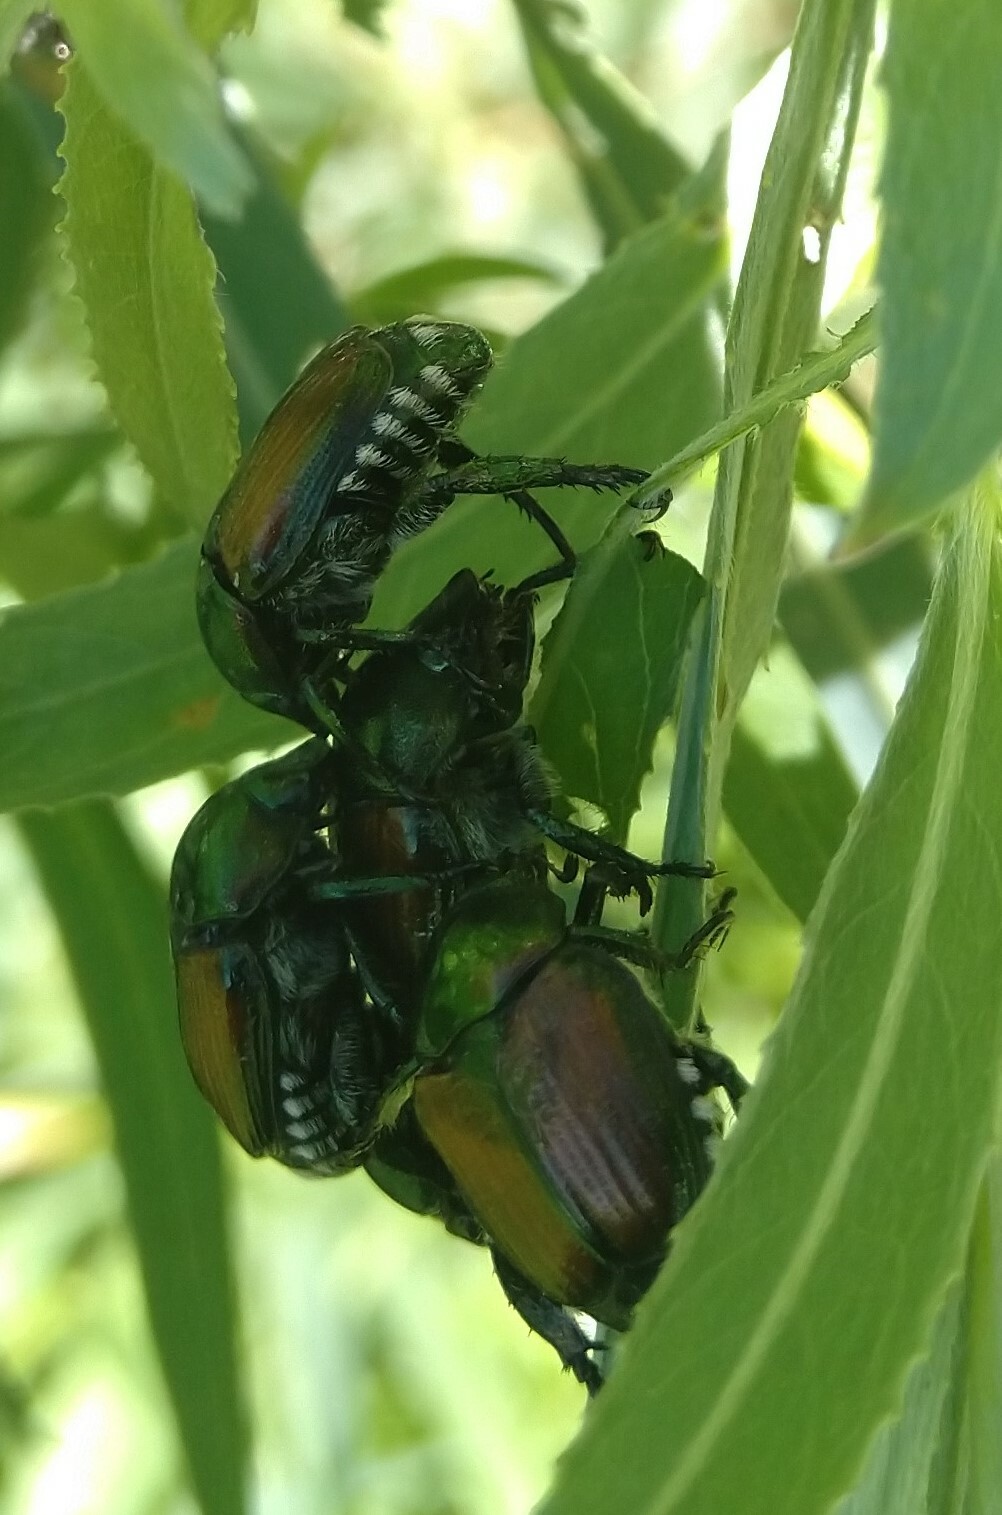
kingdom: Animalia
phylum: Arthropoda
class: Insecta
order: Coleoptera
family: Scarabaeidae
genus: Popillia
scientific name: Popillia japonica
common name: Japanese beetle
